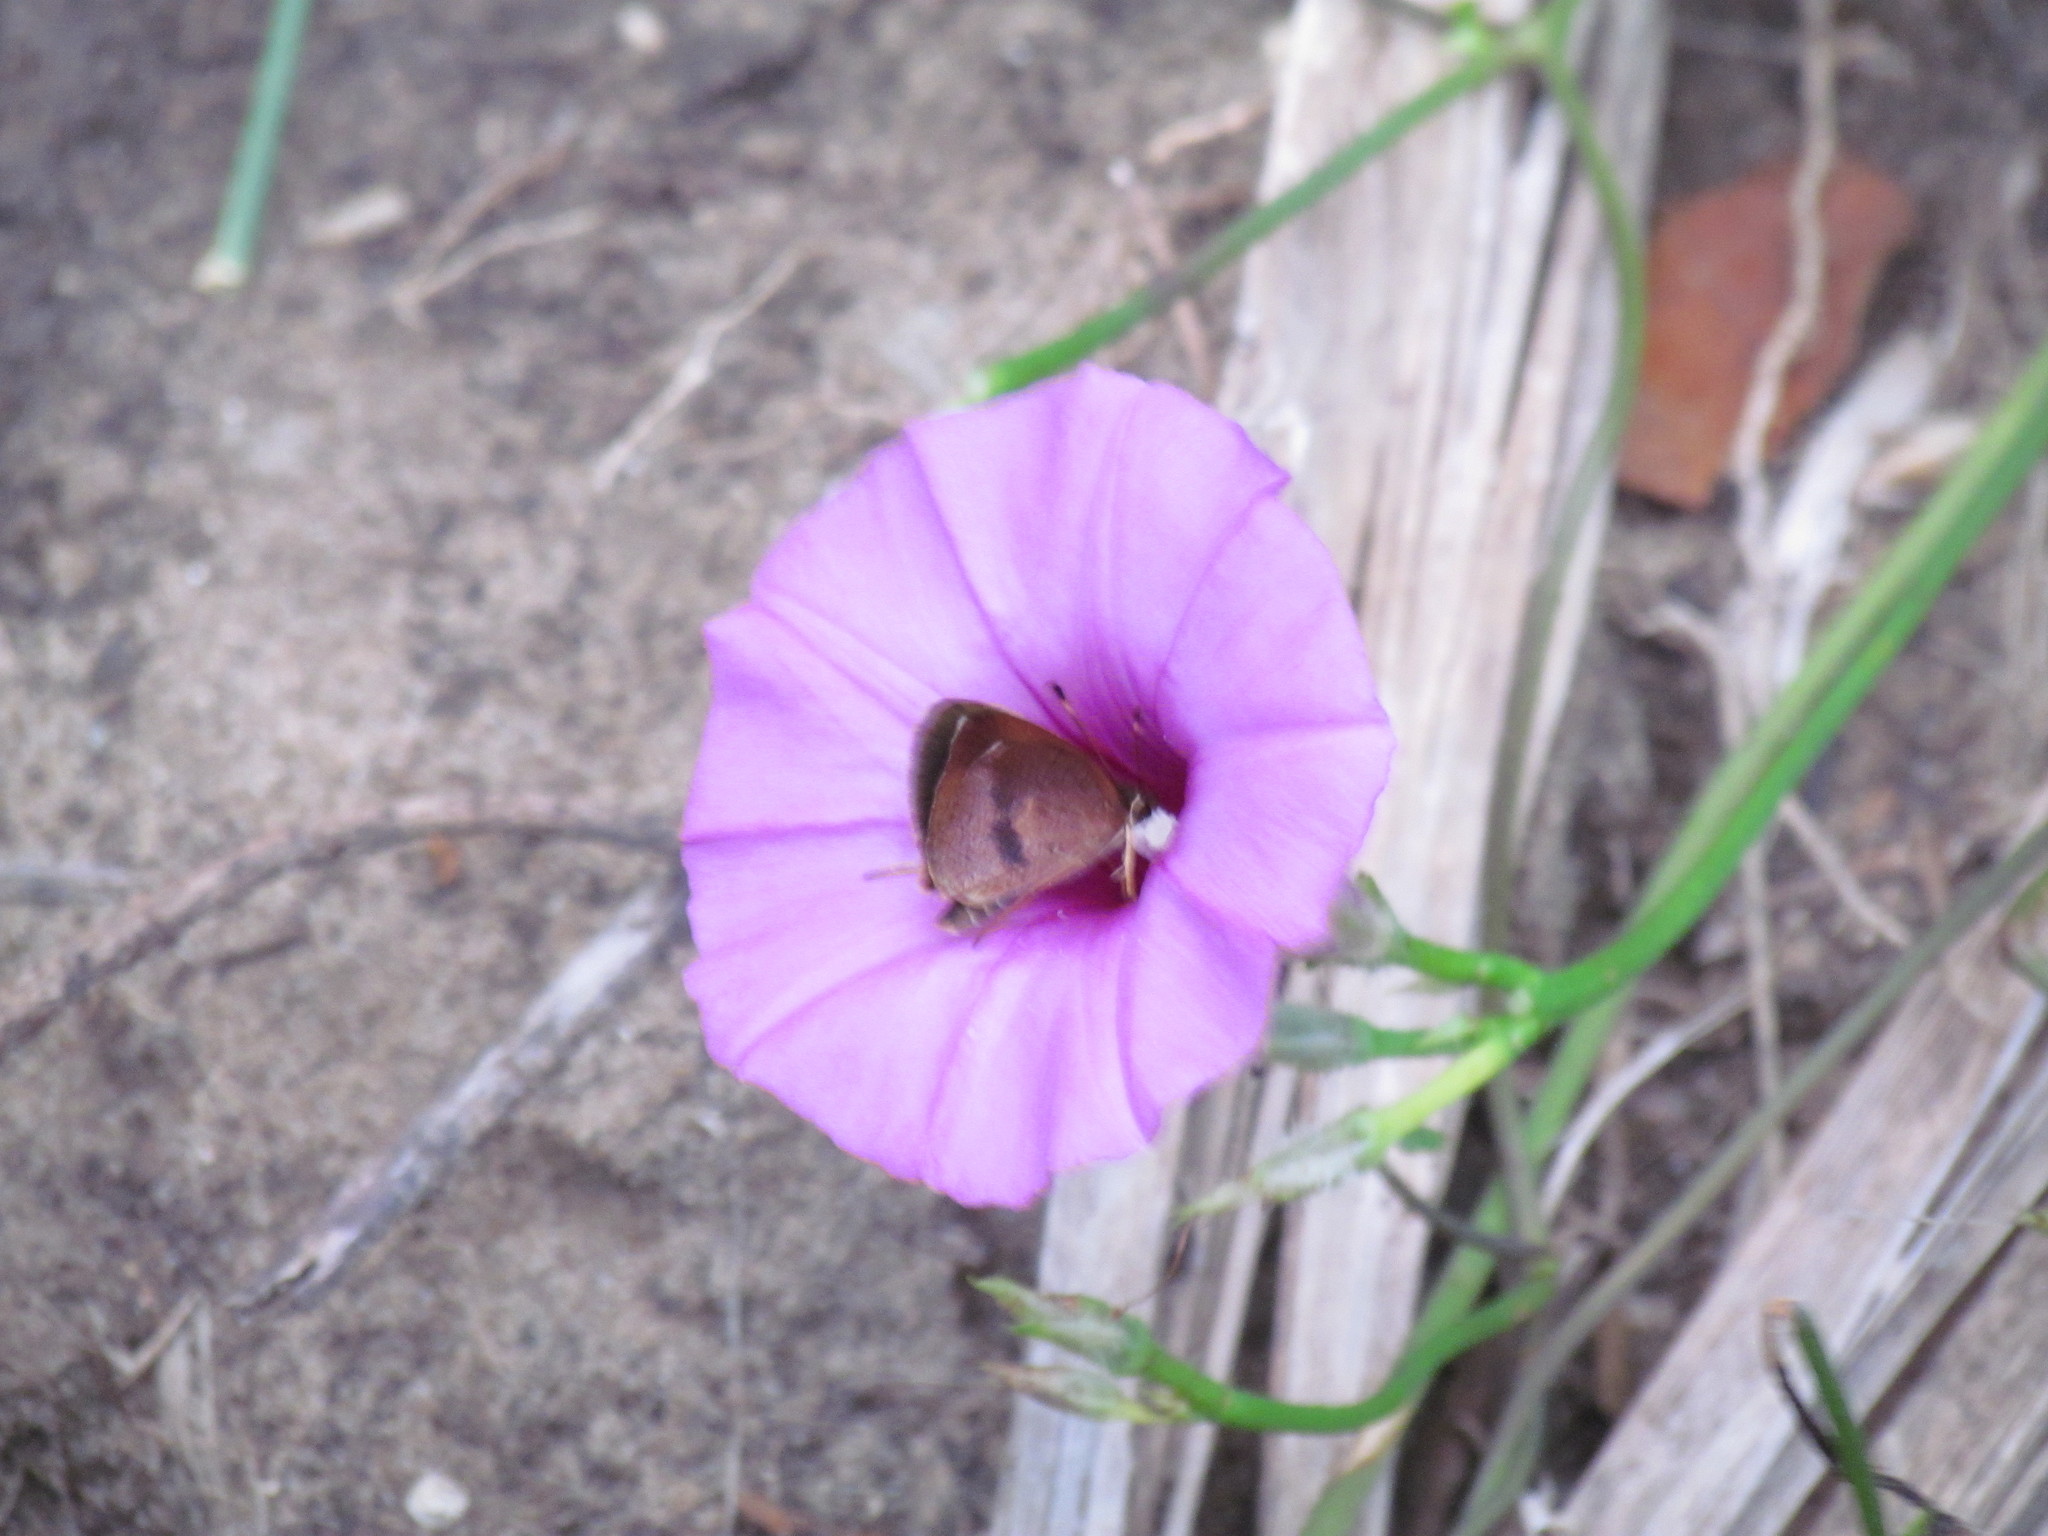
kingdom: Animalia
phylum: Arthropoda
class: Insecta
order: Lepidoptera
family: Hesperiidae
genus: Synapte
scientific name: Synapte salenus
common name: Salenus skipper
